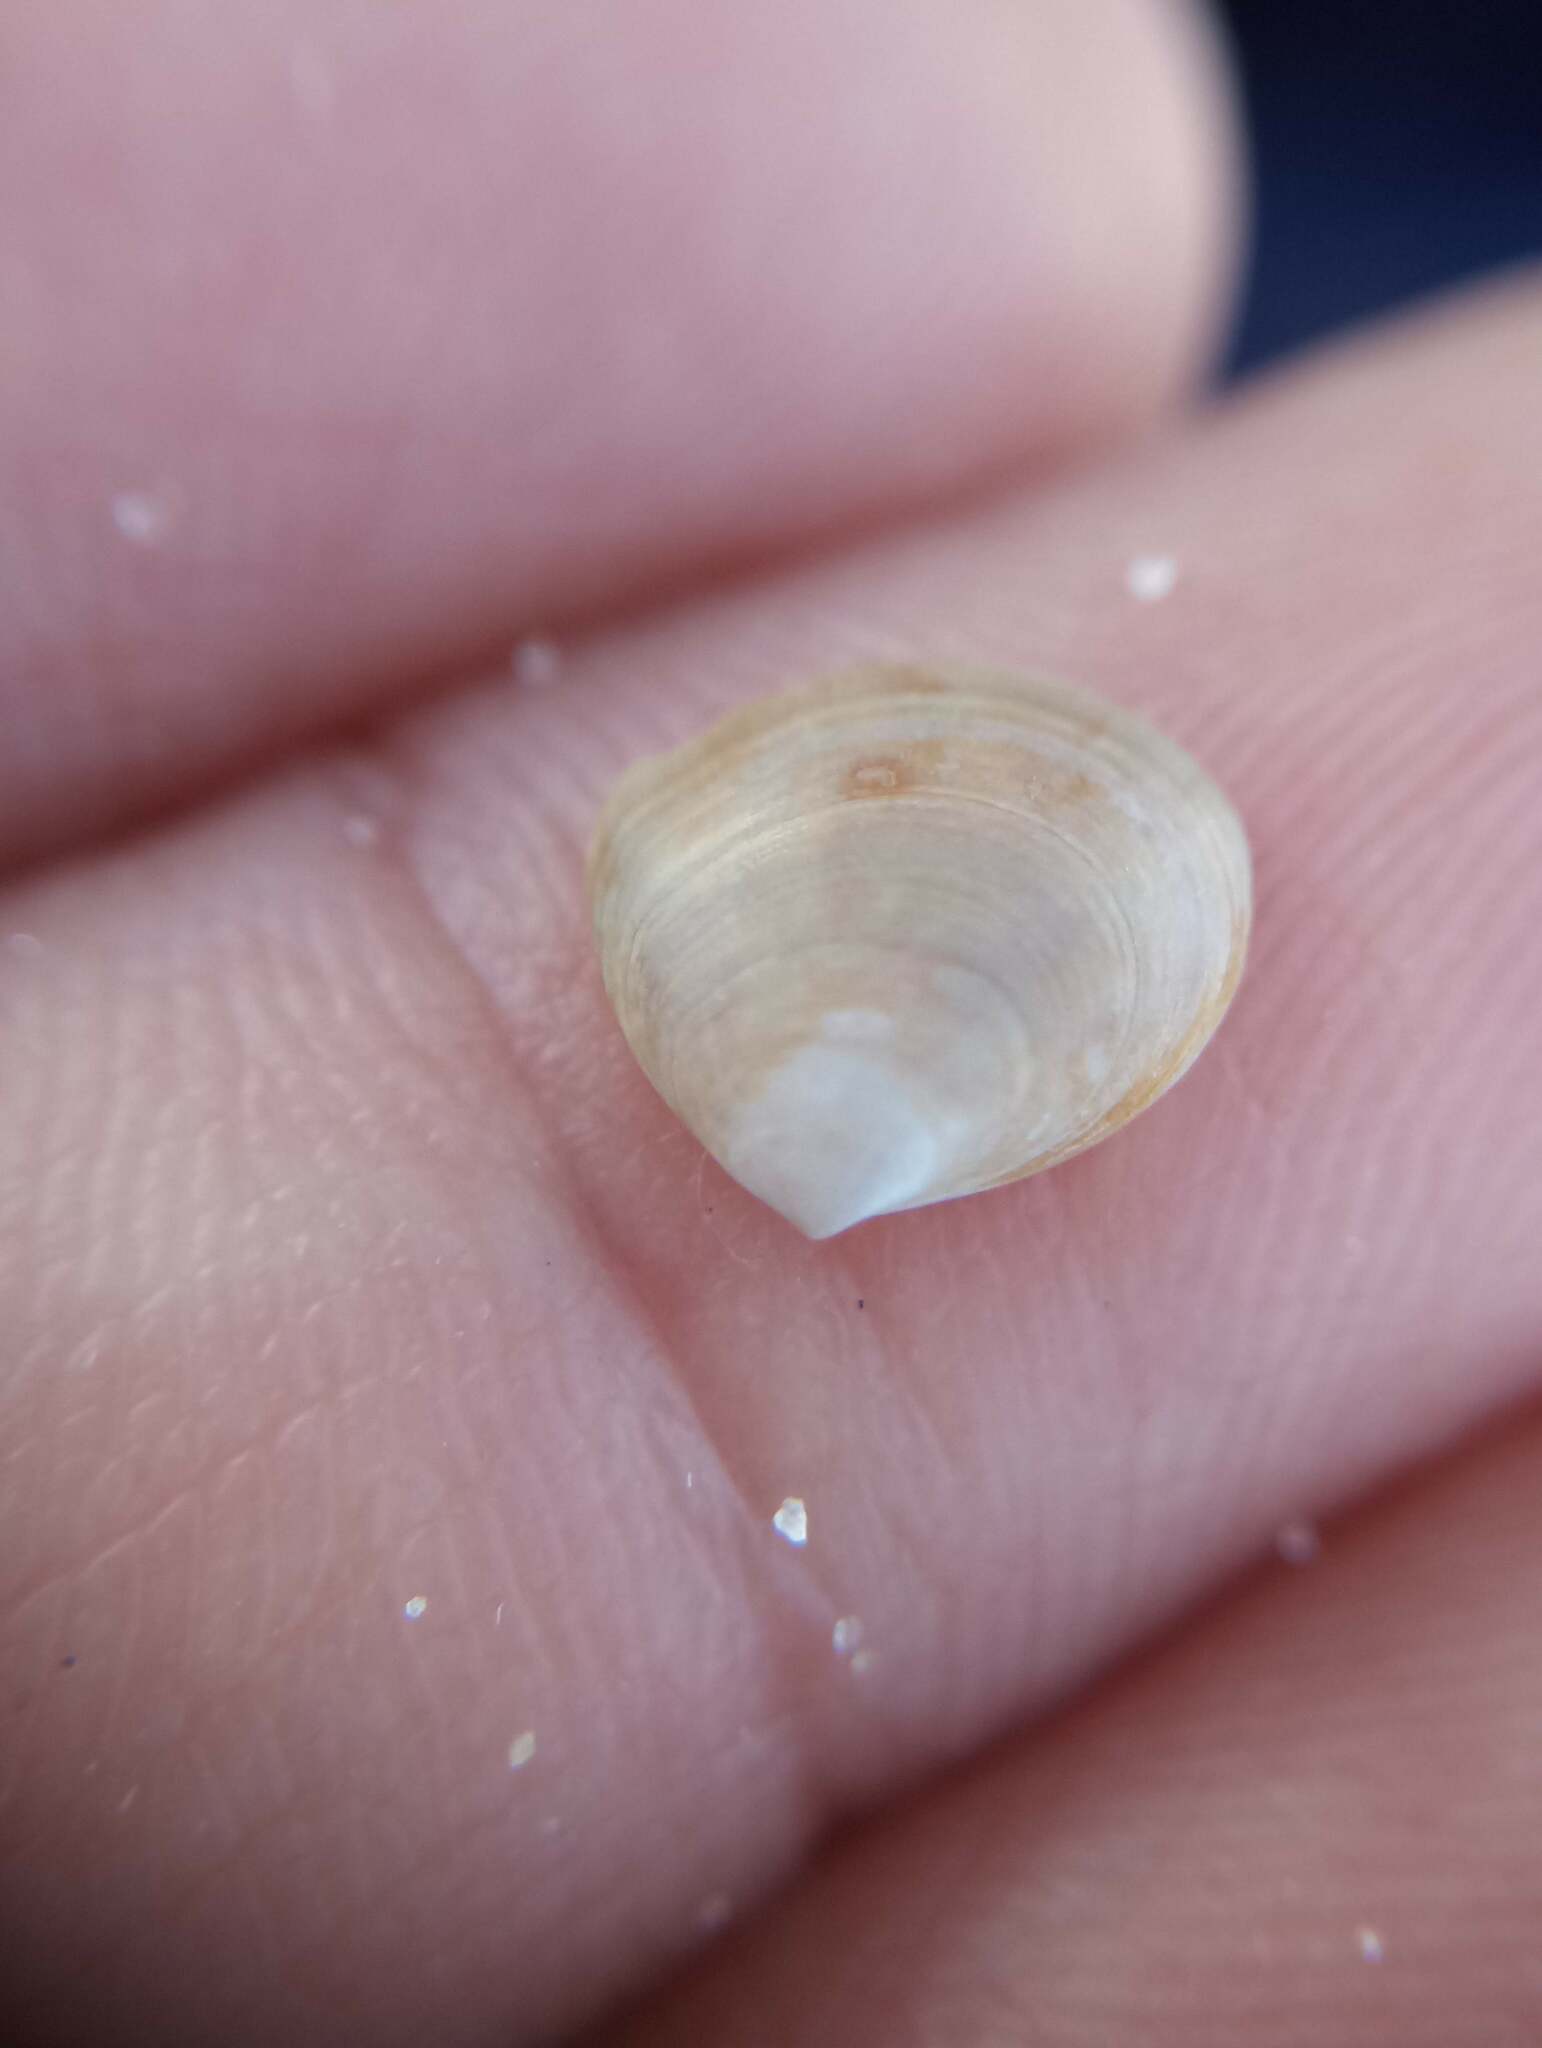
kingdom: Animalia
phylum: Mollusca
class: Bivalvia
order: Cardiida
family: Semelidae
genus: Abra
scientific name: Abra aequalis
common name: Common atlantic abra
